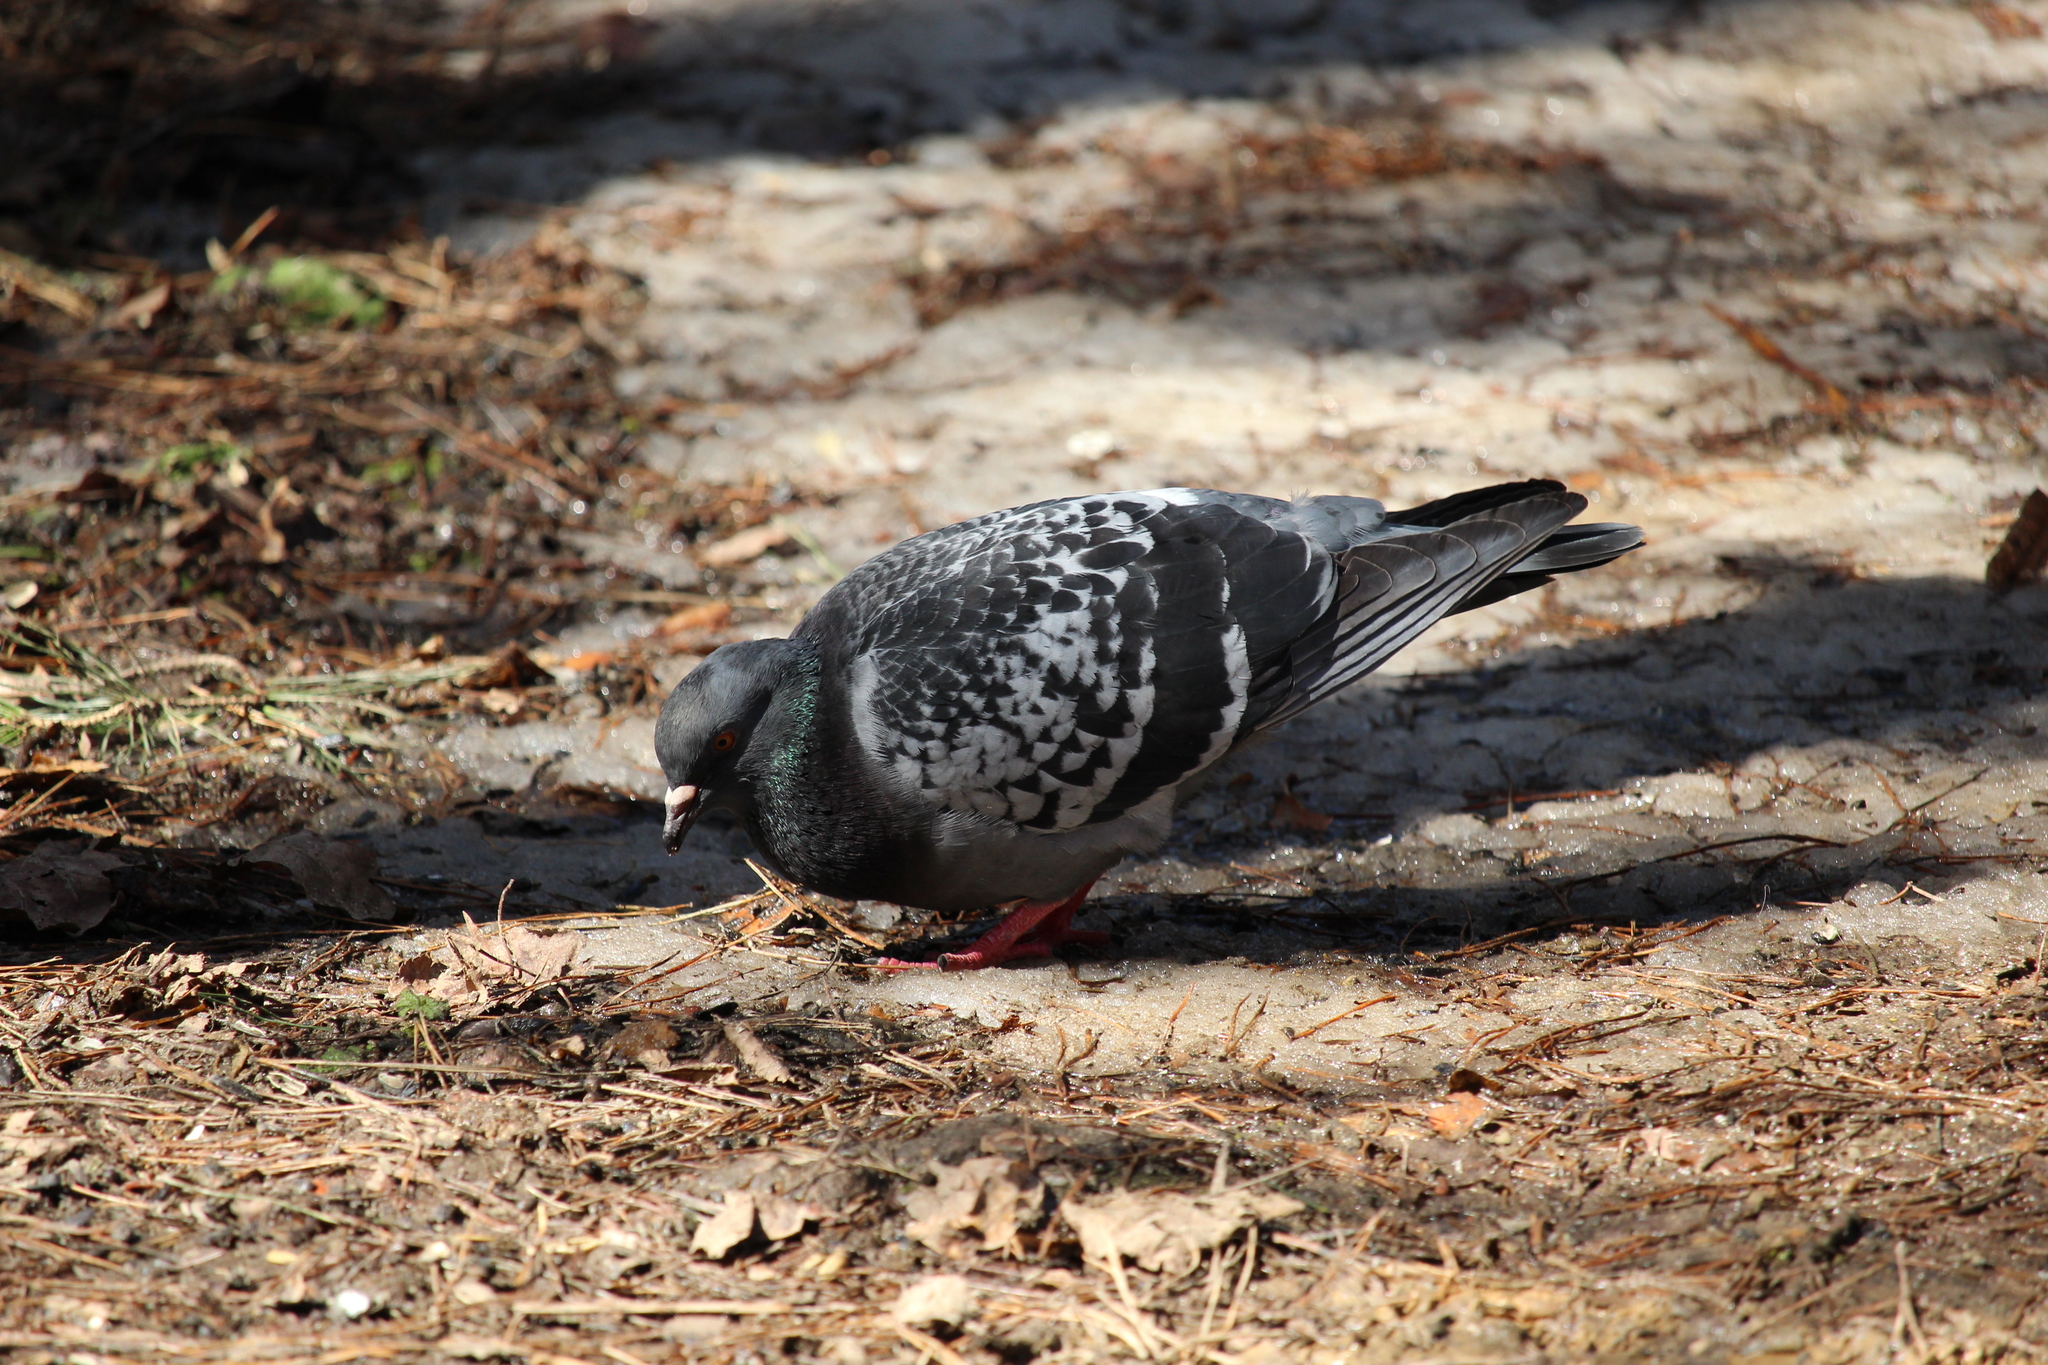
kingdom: Animalia
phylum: Chordata
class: Aves
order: Columbiformes
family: Columbidae
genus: Columba
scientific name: Columba livia
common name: Rock pigeon
